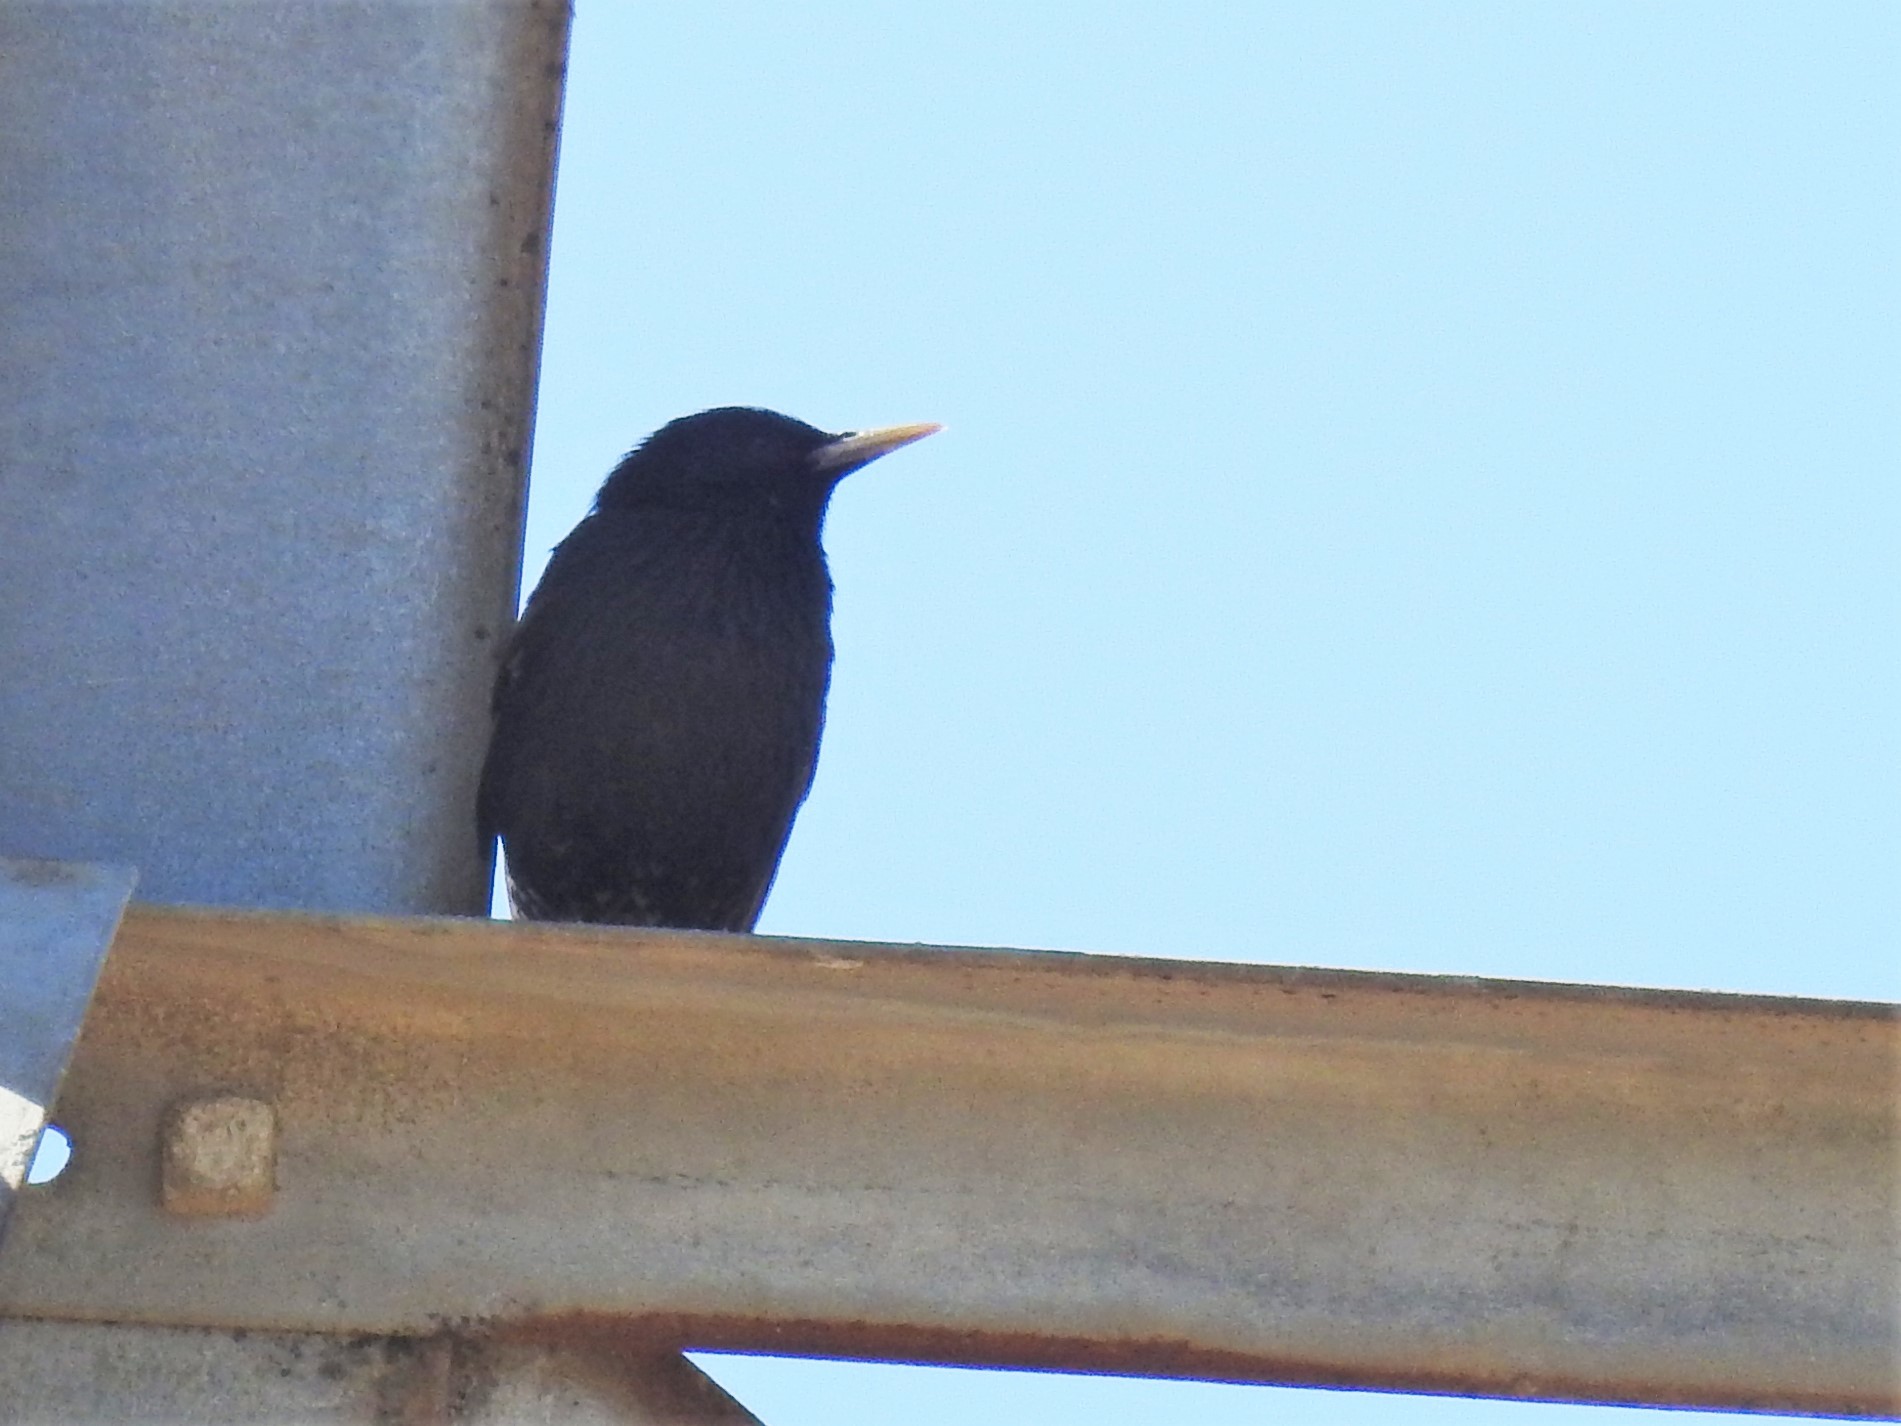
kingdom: Animalia
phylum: Chordata
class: Aves
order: Passeriformes
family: Sturnidae
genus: Sturnus
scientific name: Sturnus vulgaris
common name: Common starling
